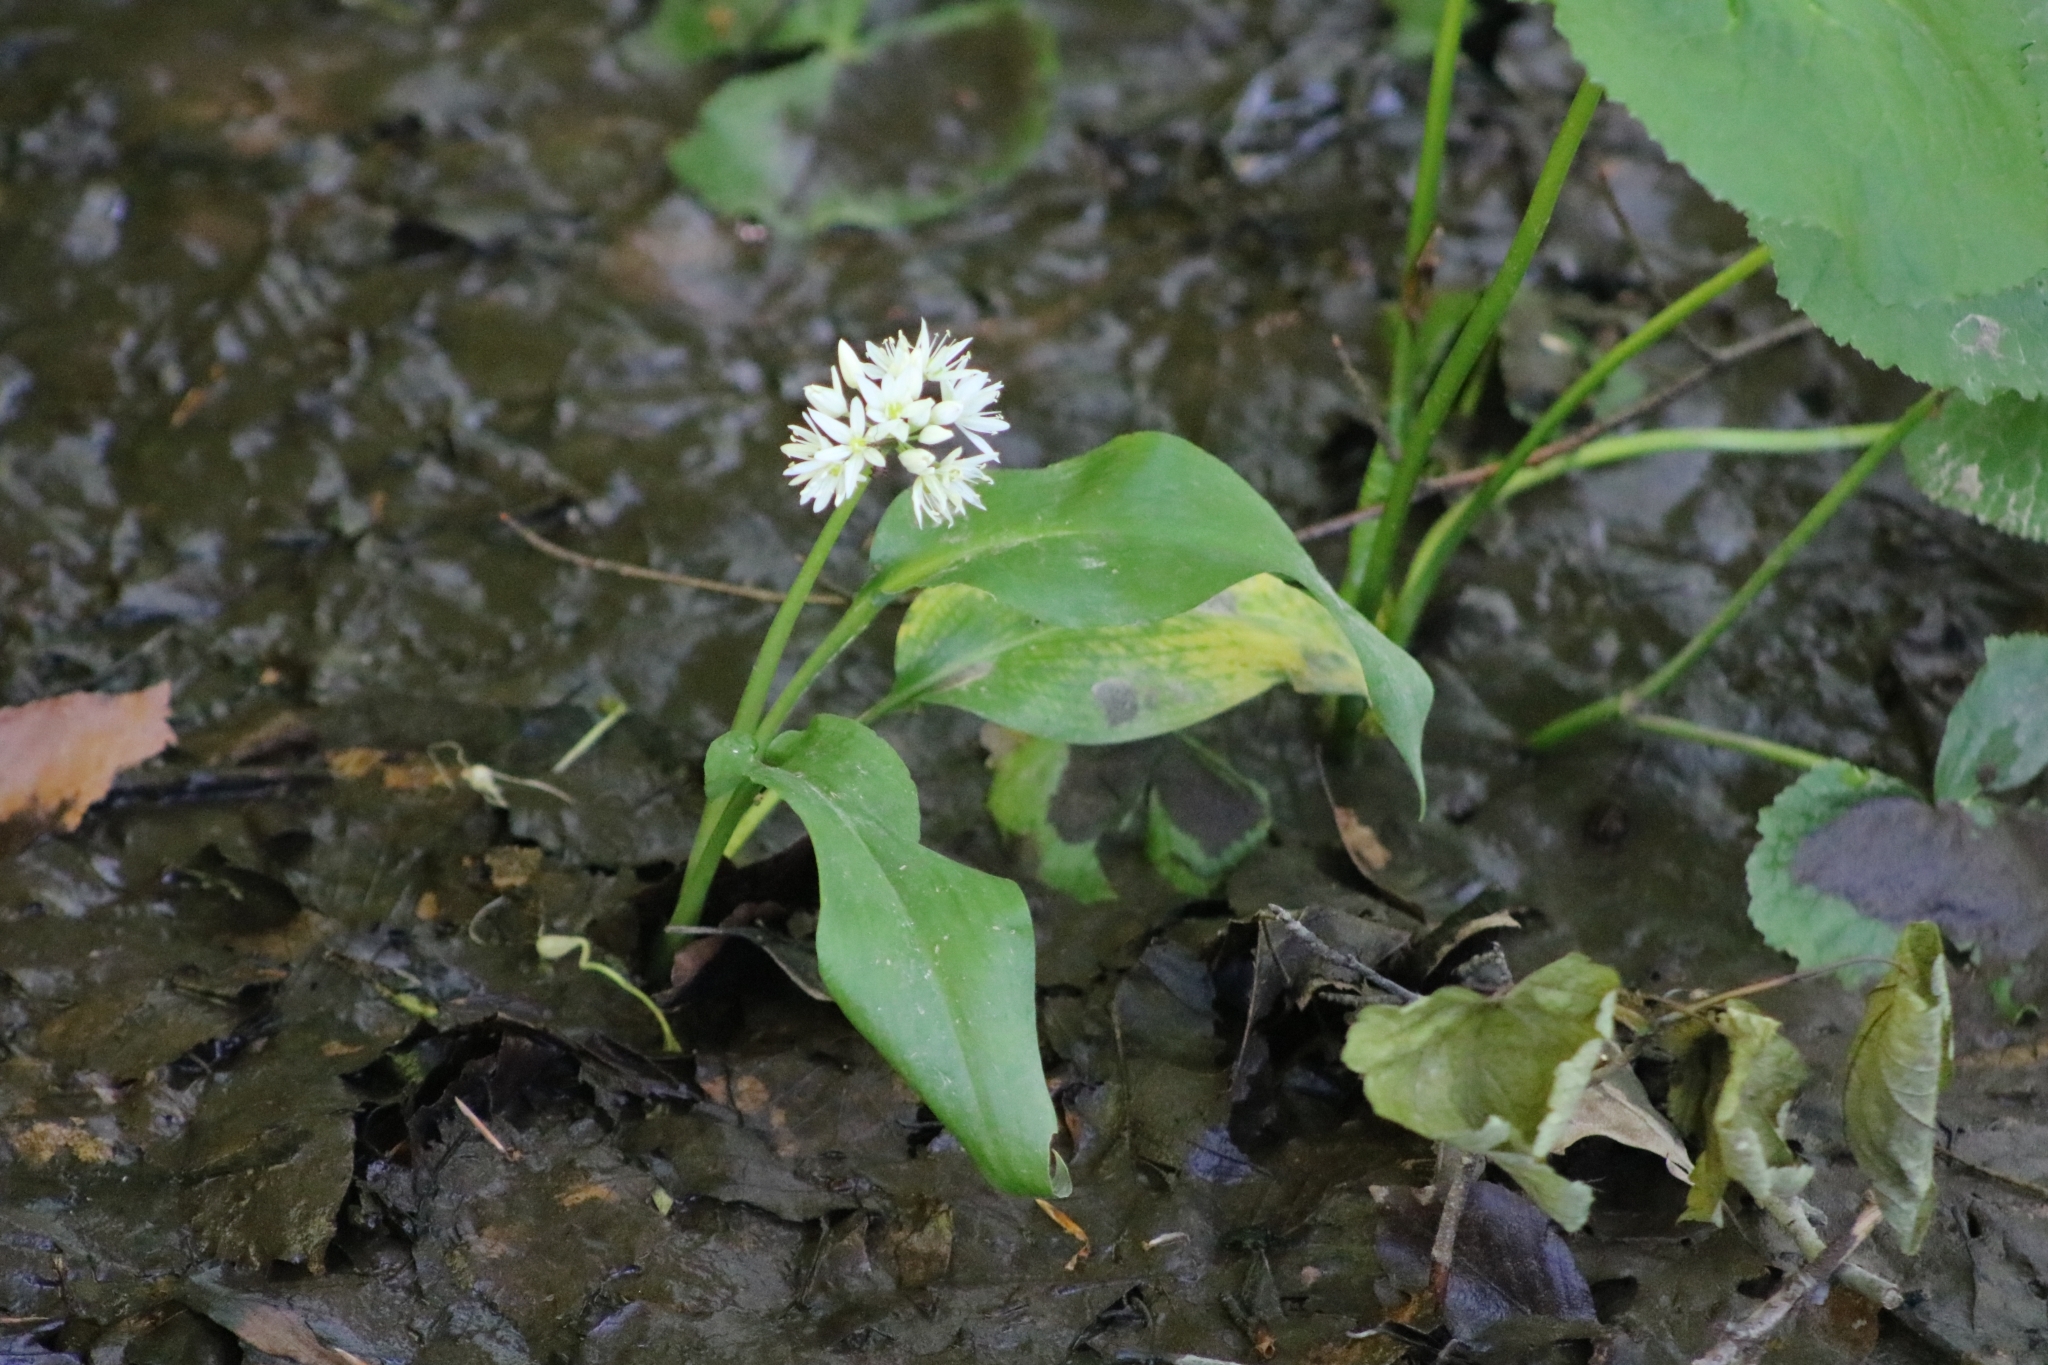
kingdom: Plantae
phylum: Tracheophyta
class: Liliopsida
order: Asparagales
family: Amaryllidaceae
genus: Allium
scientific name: Allium ursinum
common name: Ramsons
